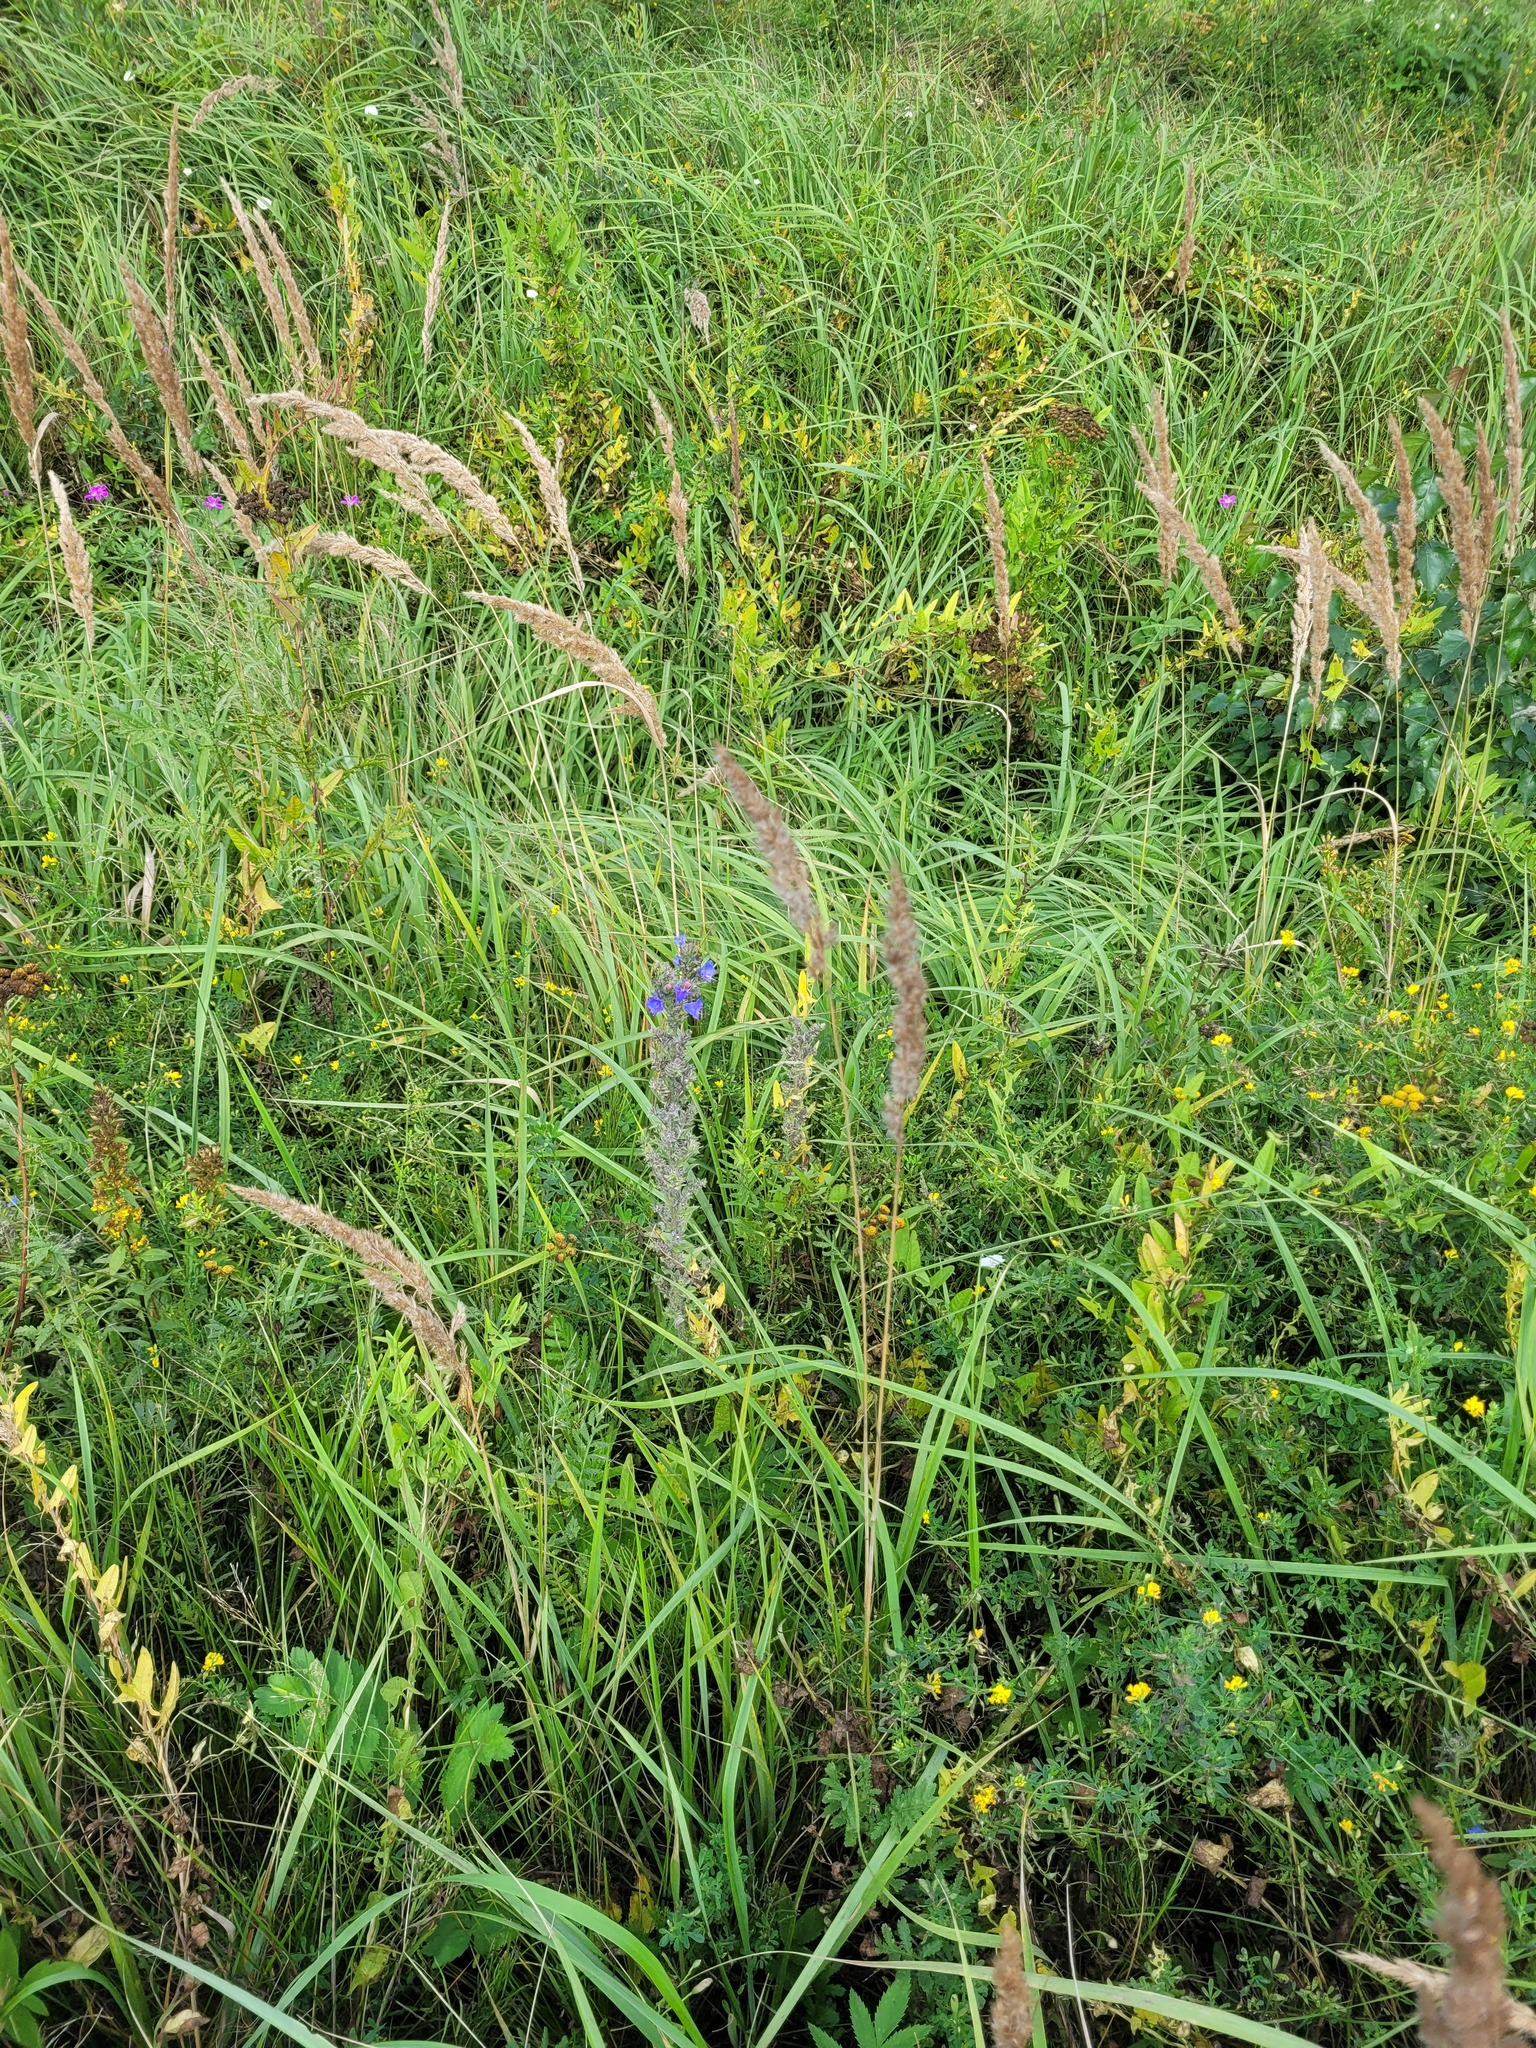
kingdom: Plantae
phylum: Tracheophyta
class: Magnoliopsida
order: Boraginales
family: Boraginaceae
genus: Echium
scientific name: Echium vulgare
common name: Common viper's bugloss
